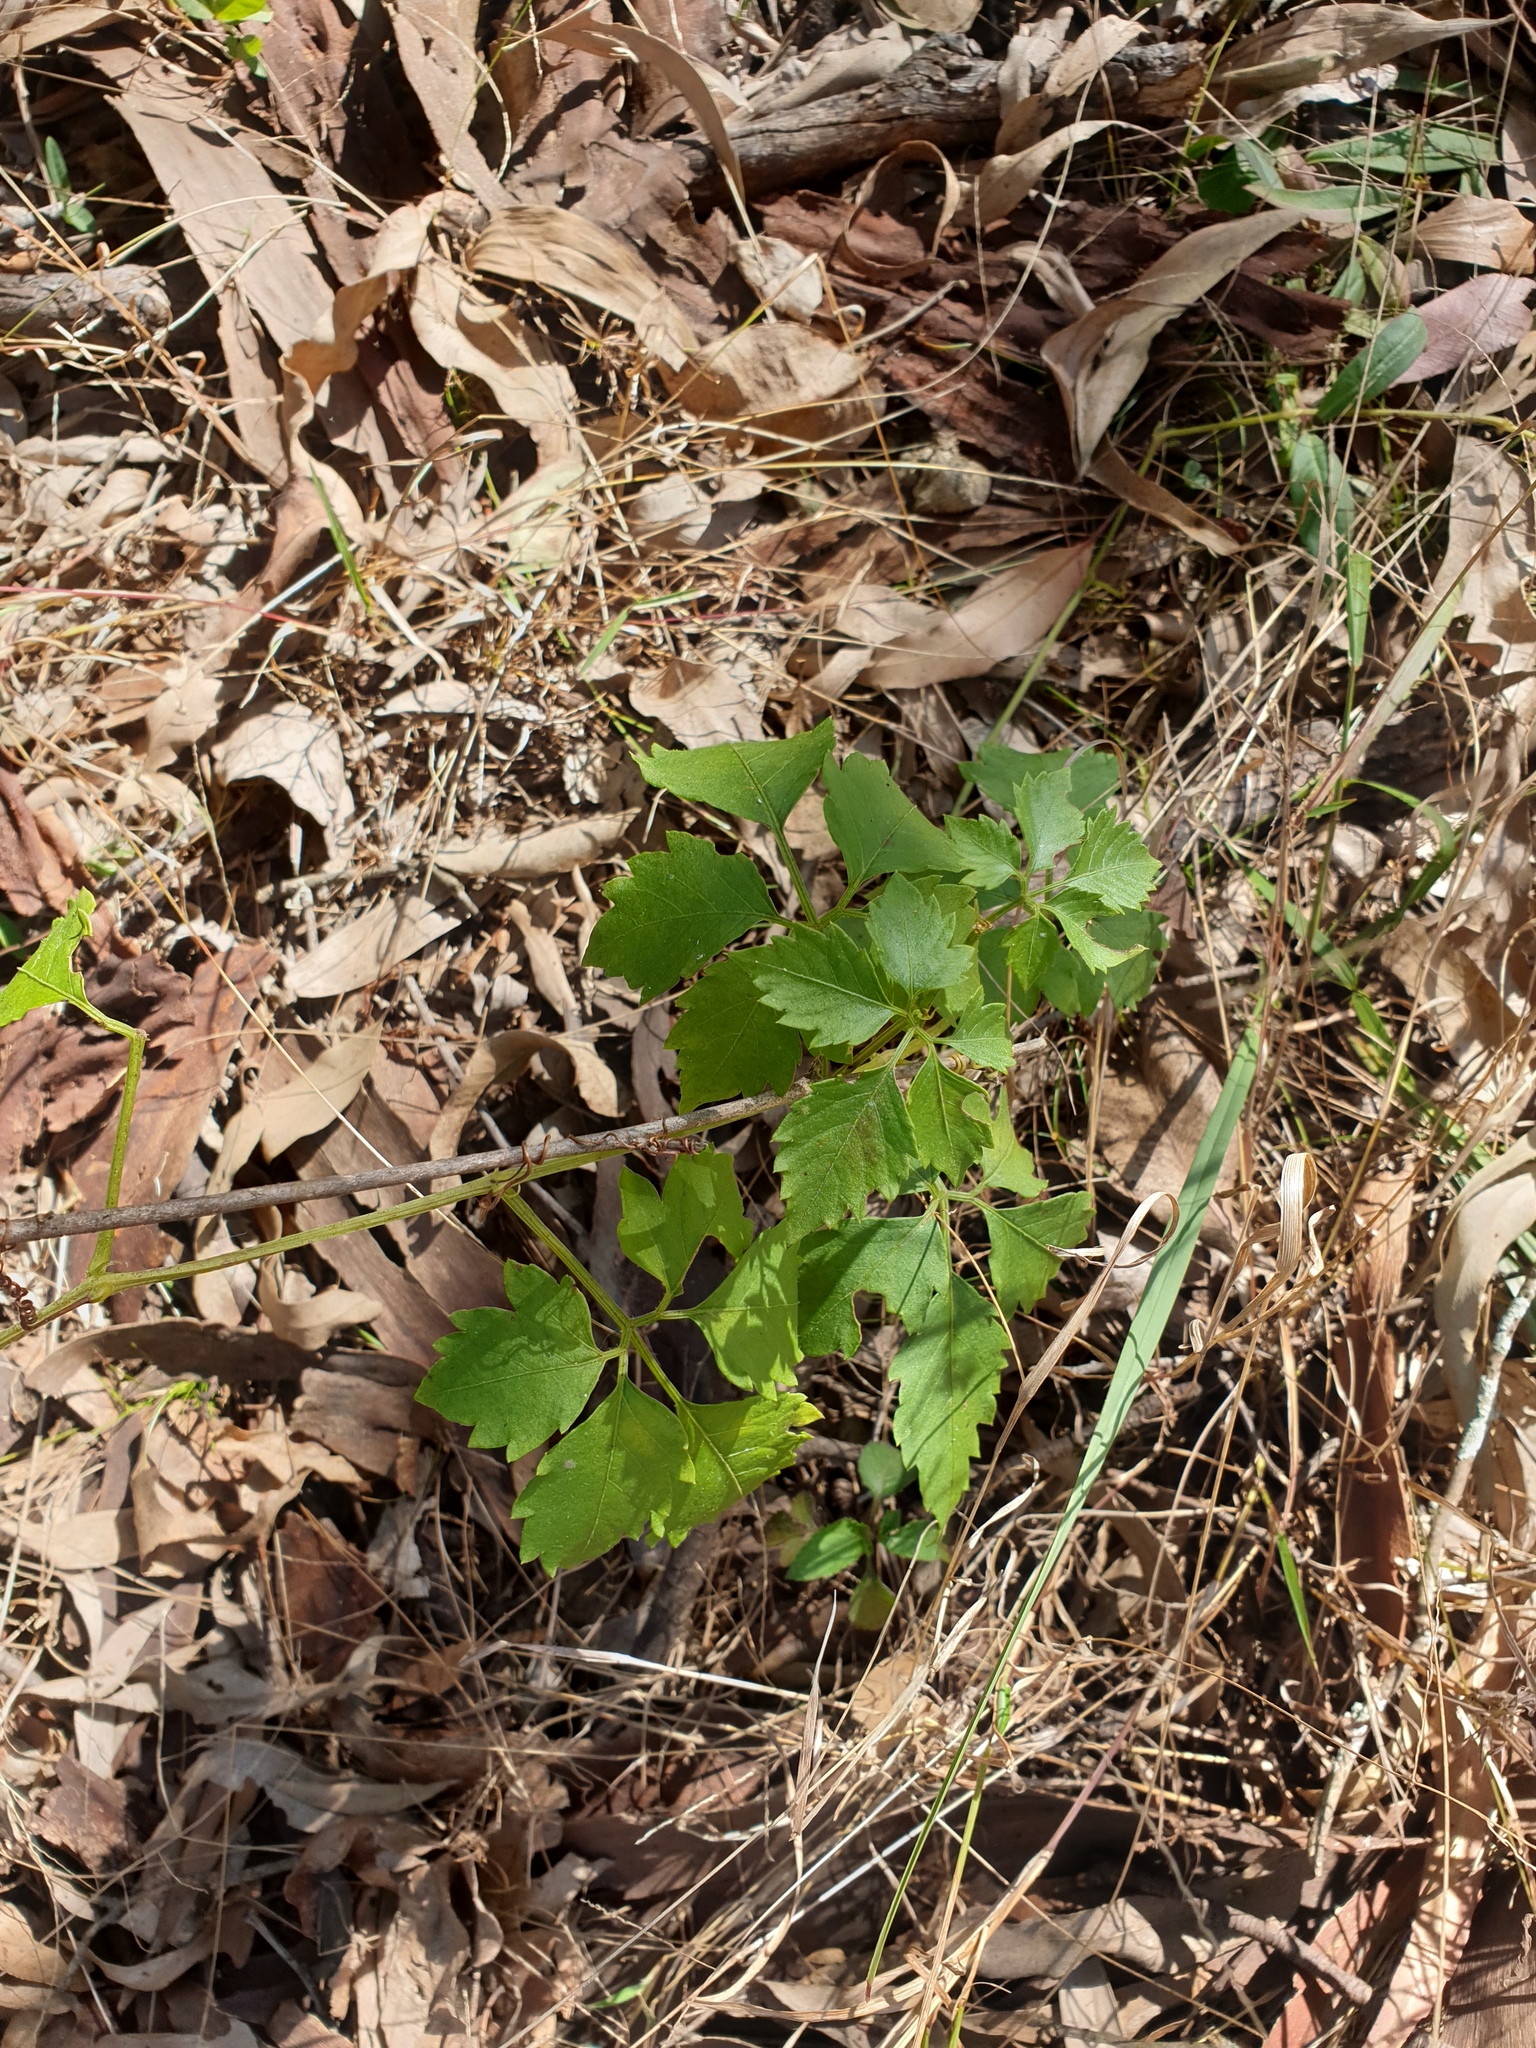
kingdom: Plantae
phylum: Tracheophyta
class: Magnoliopsida
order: Vitales
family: Vitaceae
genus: Causonis
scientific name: Causonis clematidea
